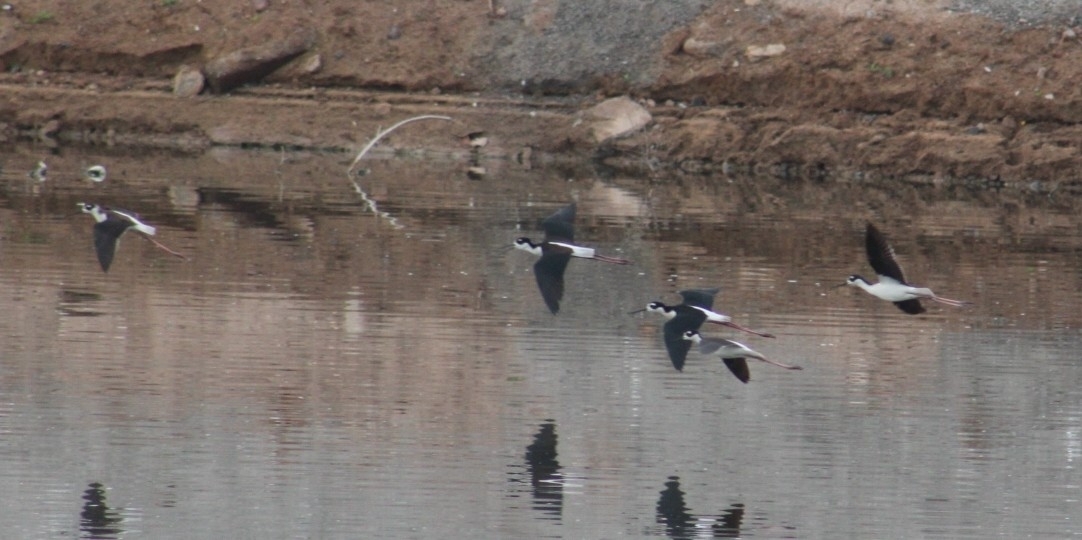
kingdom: Animalia
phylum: Chordata
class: Aves
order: Charadriiformes
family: Recurvirostridae
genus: Himantopus
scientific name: Himantopus mexicanus
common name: Black-necked stilt
